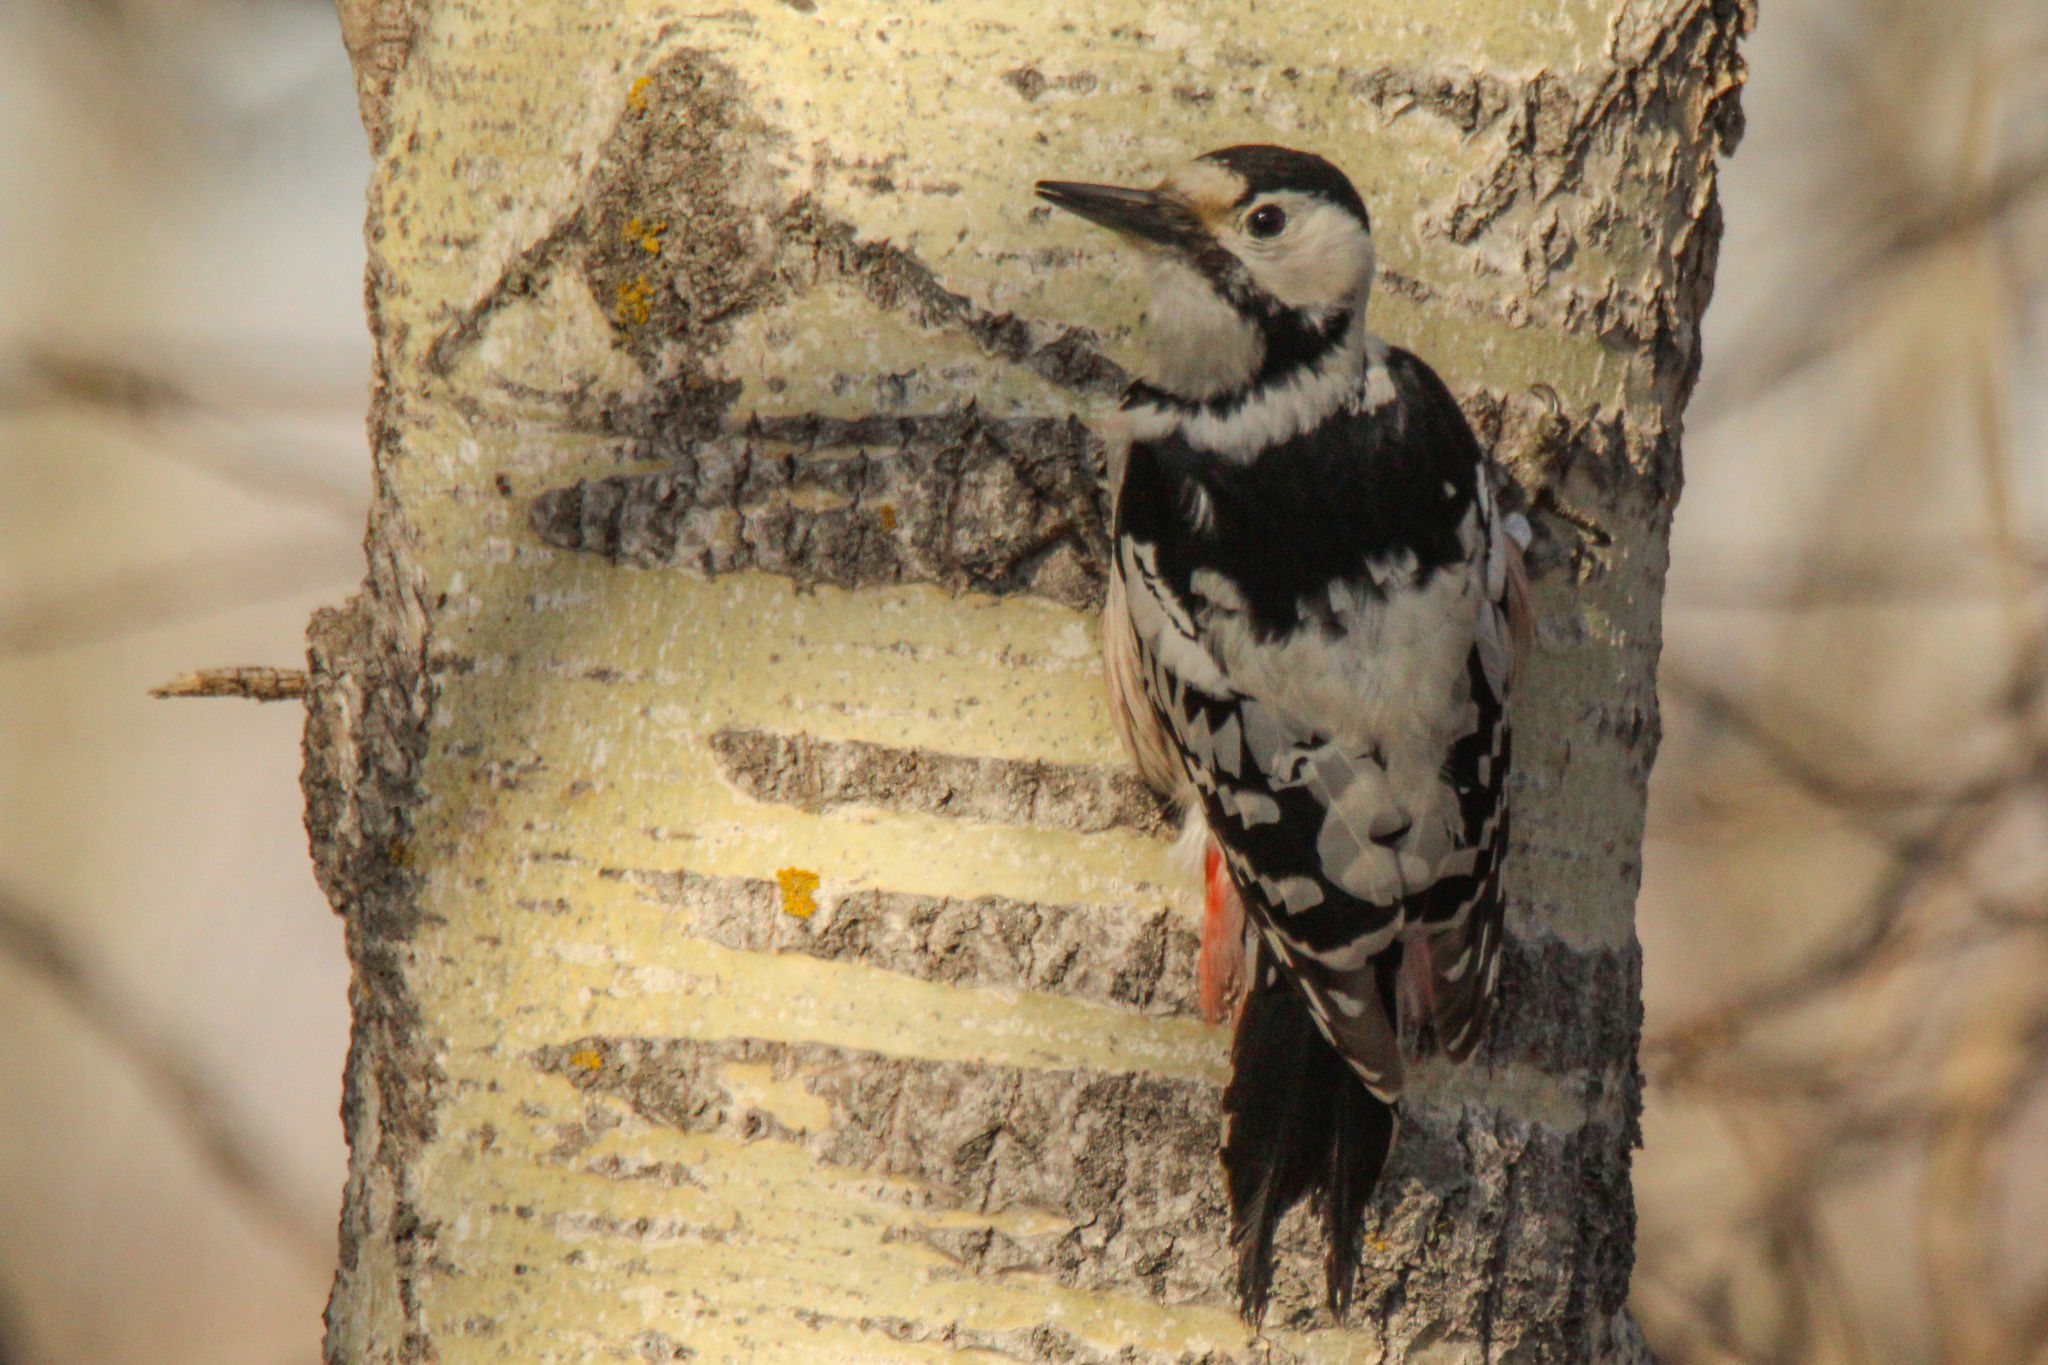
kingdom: Animalia
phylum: Chordata
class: Aves
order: Piciformes
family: Picidae
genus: Dendrocopos
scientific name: Dendrocopos leucotos
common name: White-backed woodpecker
